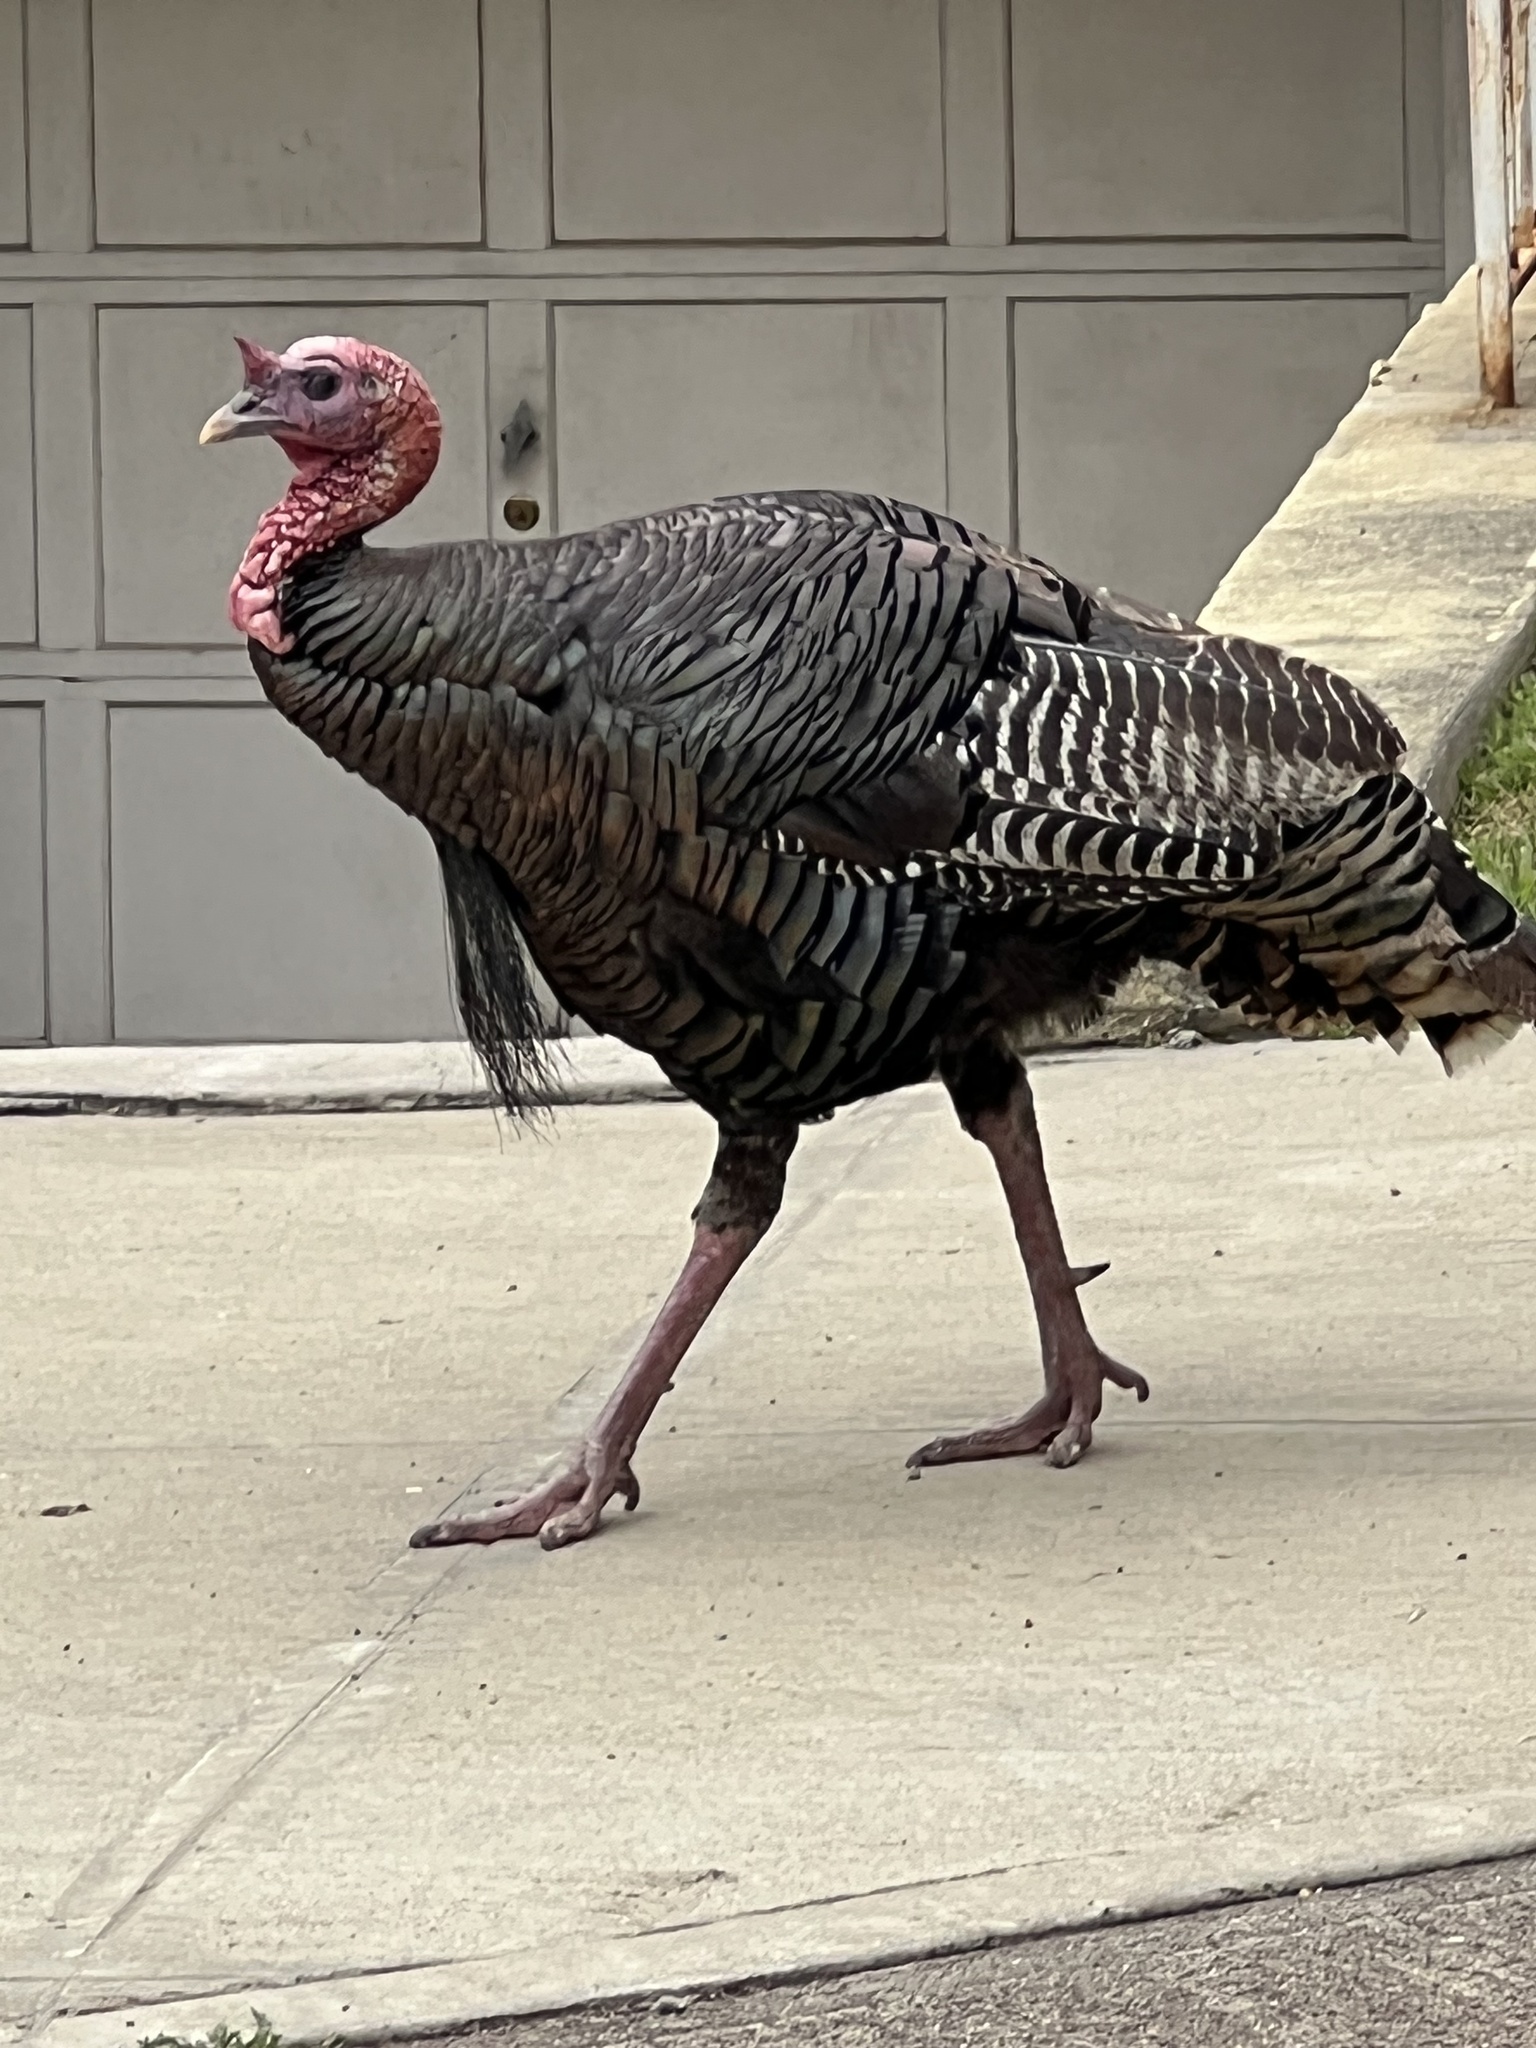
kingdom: Animalia
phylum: Chordata
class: Aves
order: Galliformes
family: Phasianidae
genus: Meleagris
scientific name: Meleagris gallopavo
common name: Wild turkey
